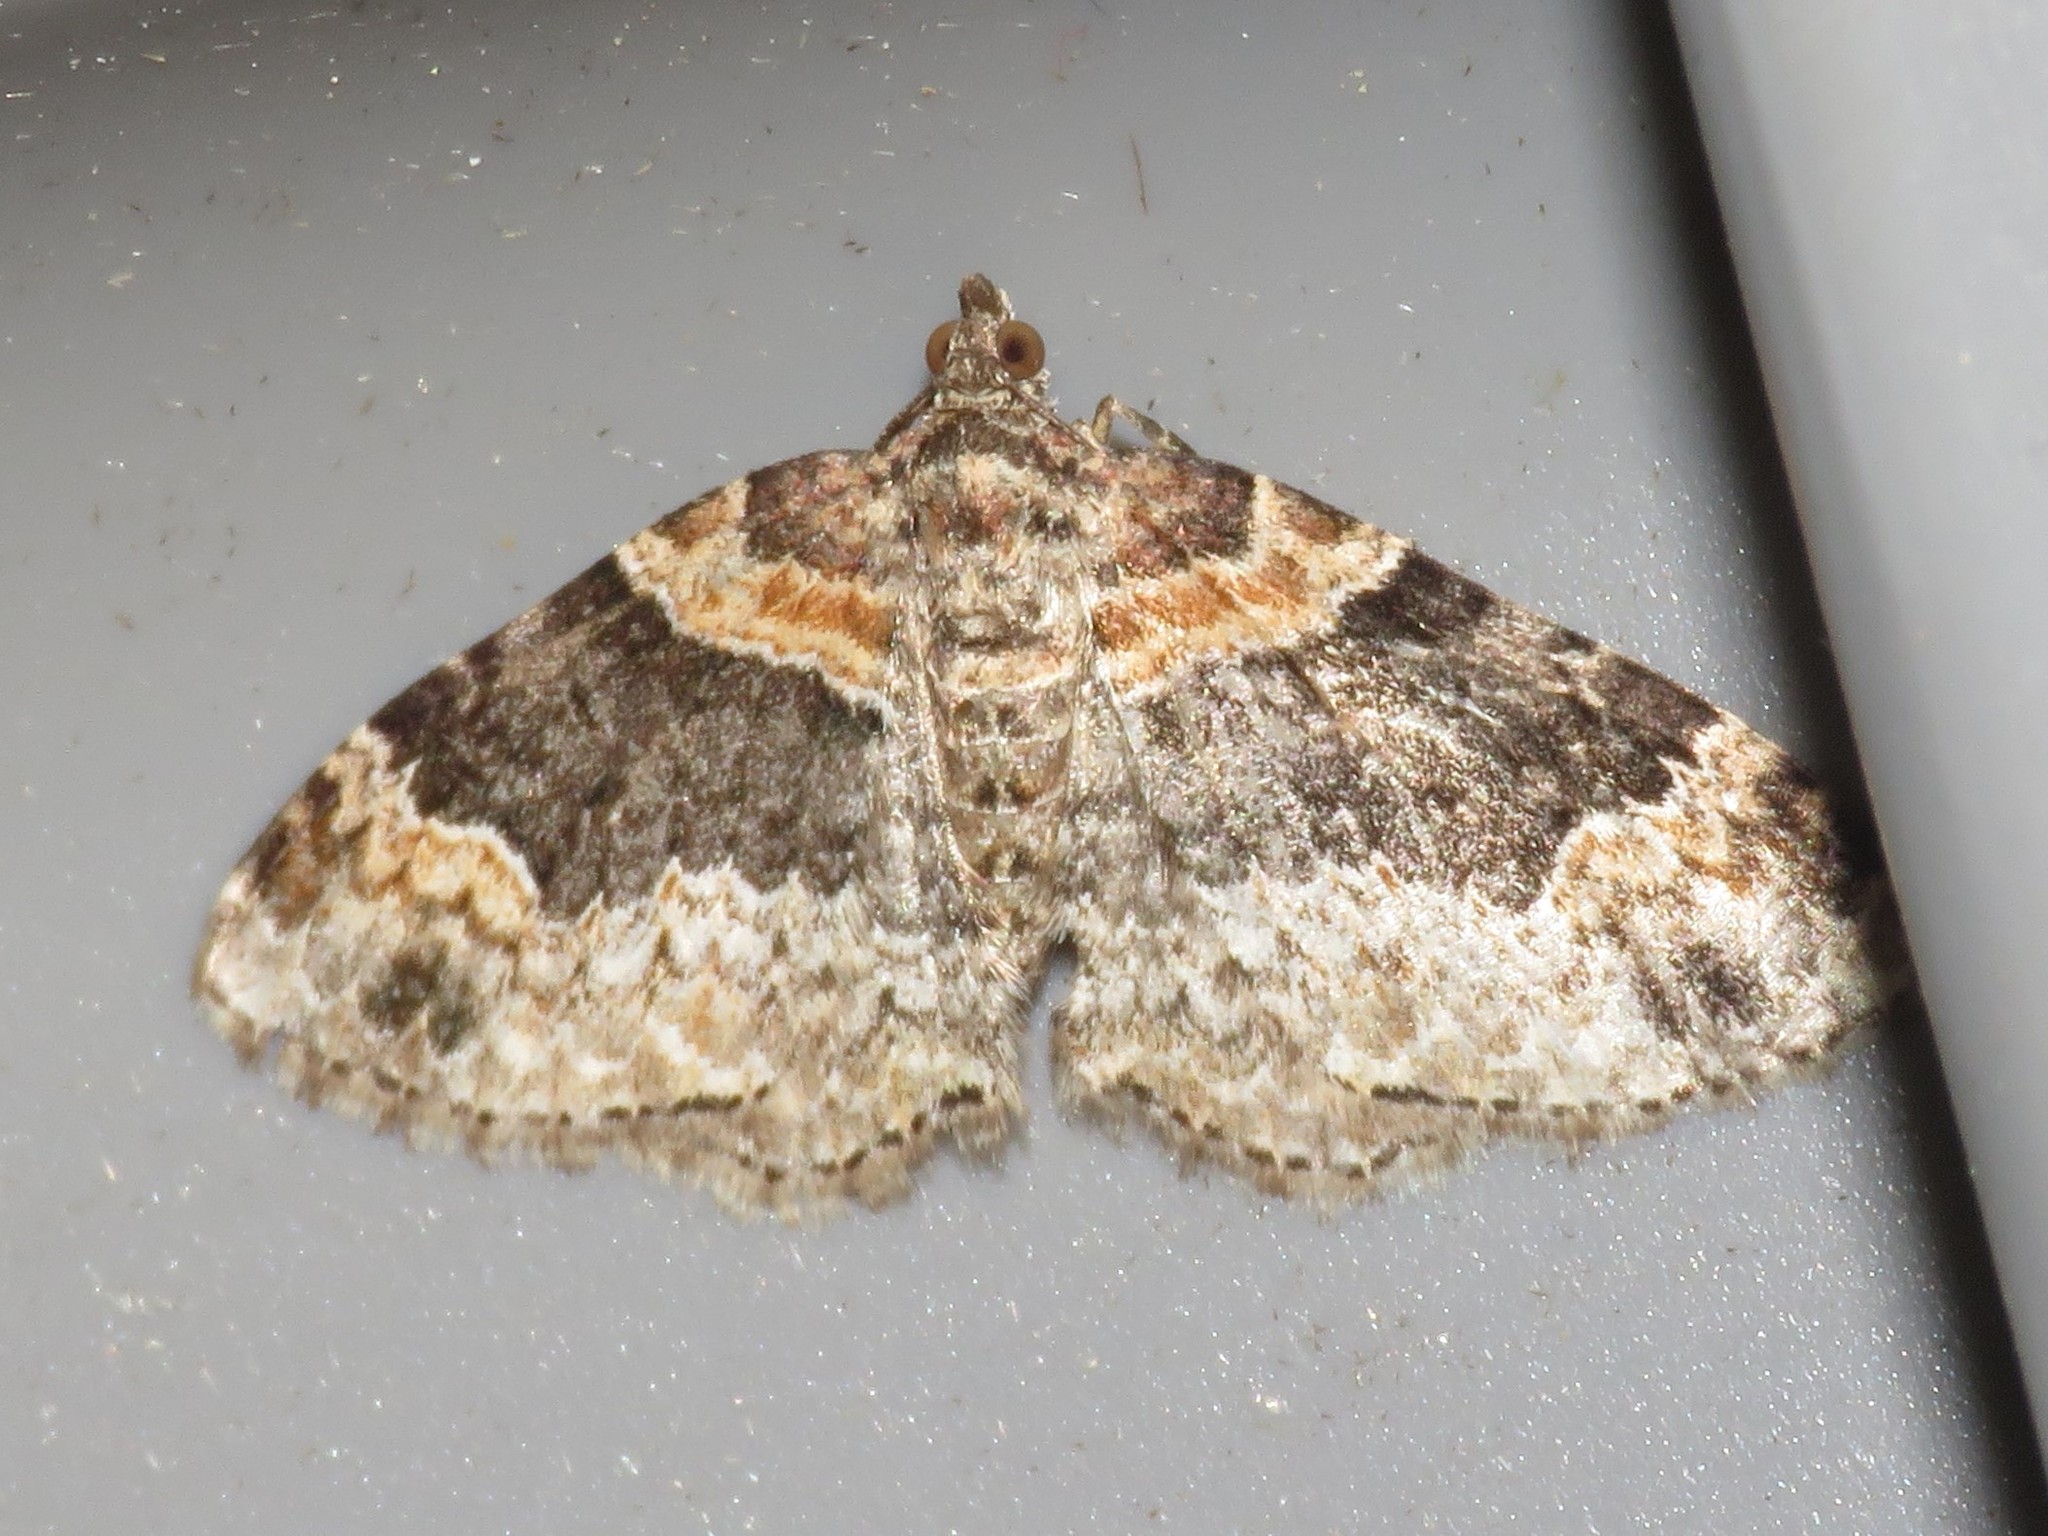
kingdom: Animalia
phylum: Arthropoda
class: Insecta
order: Lepidoptera
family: Geometridae
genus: Xanthorhoe
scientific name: Xanthorhoe ferrugata
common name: Dark-barred twin-spot carpet
